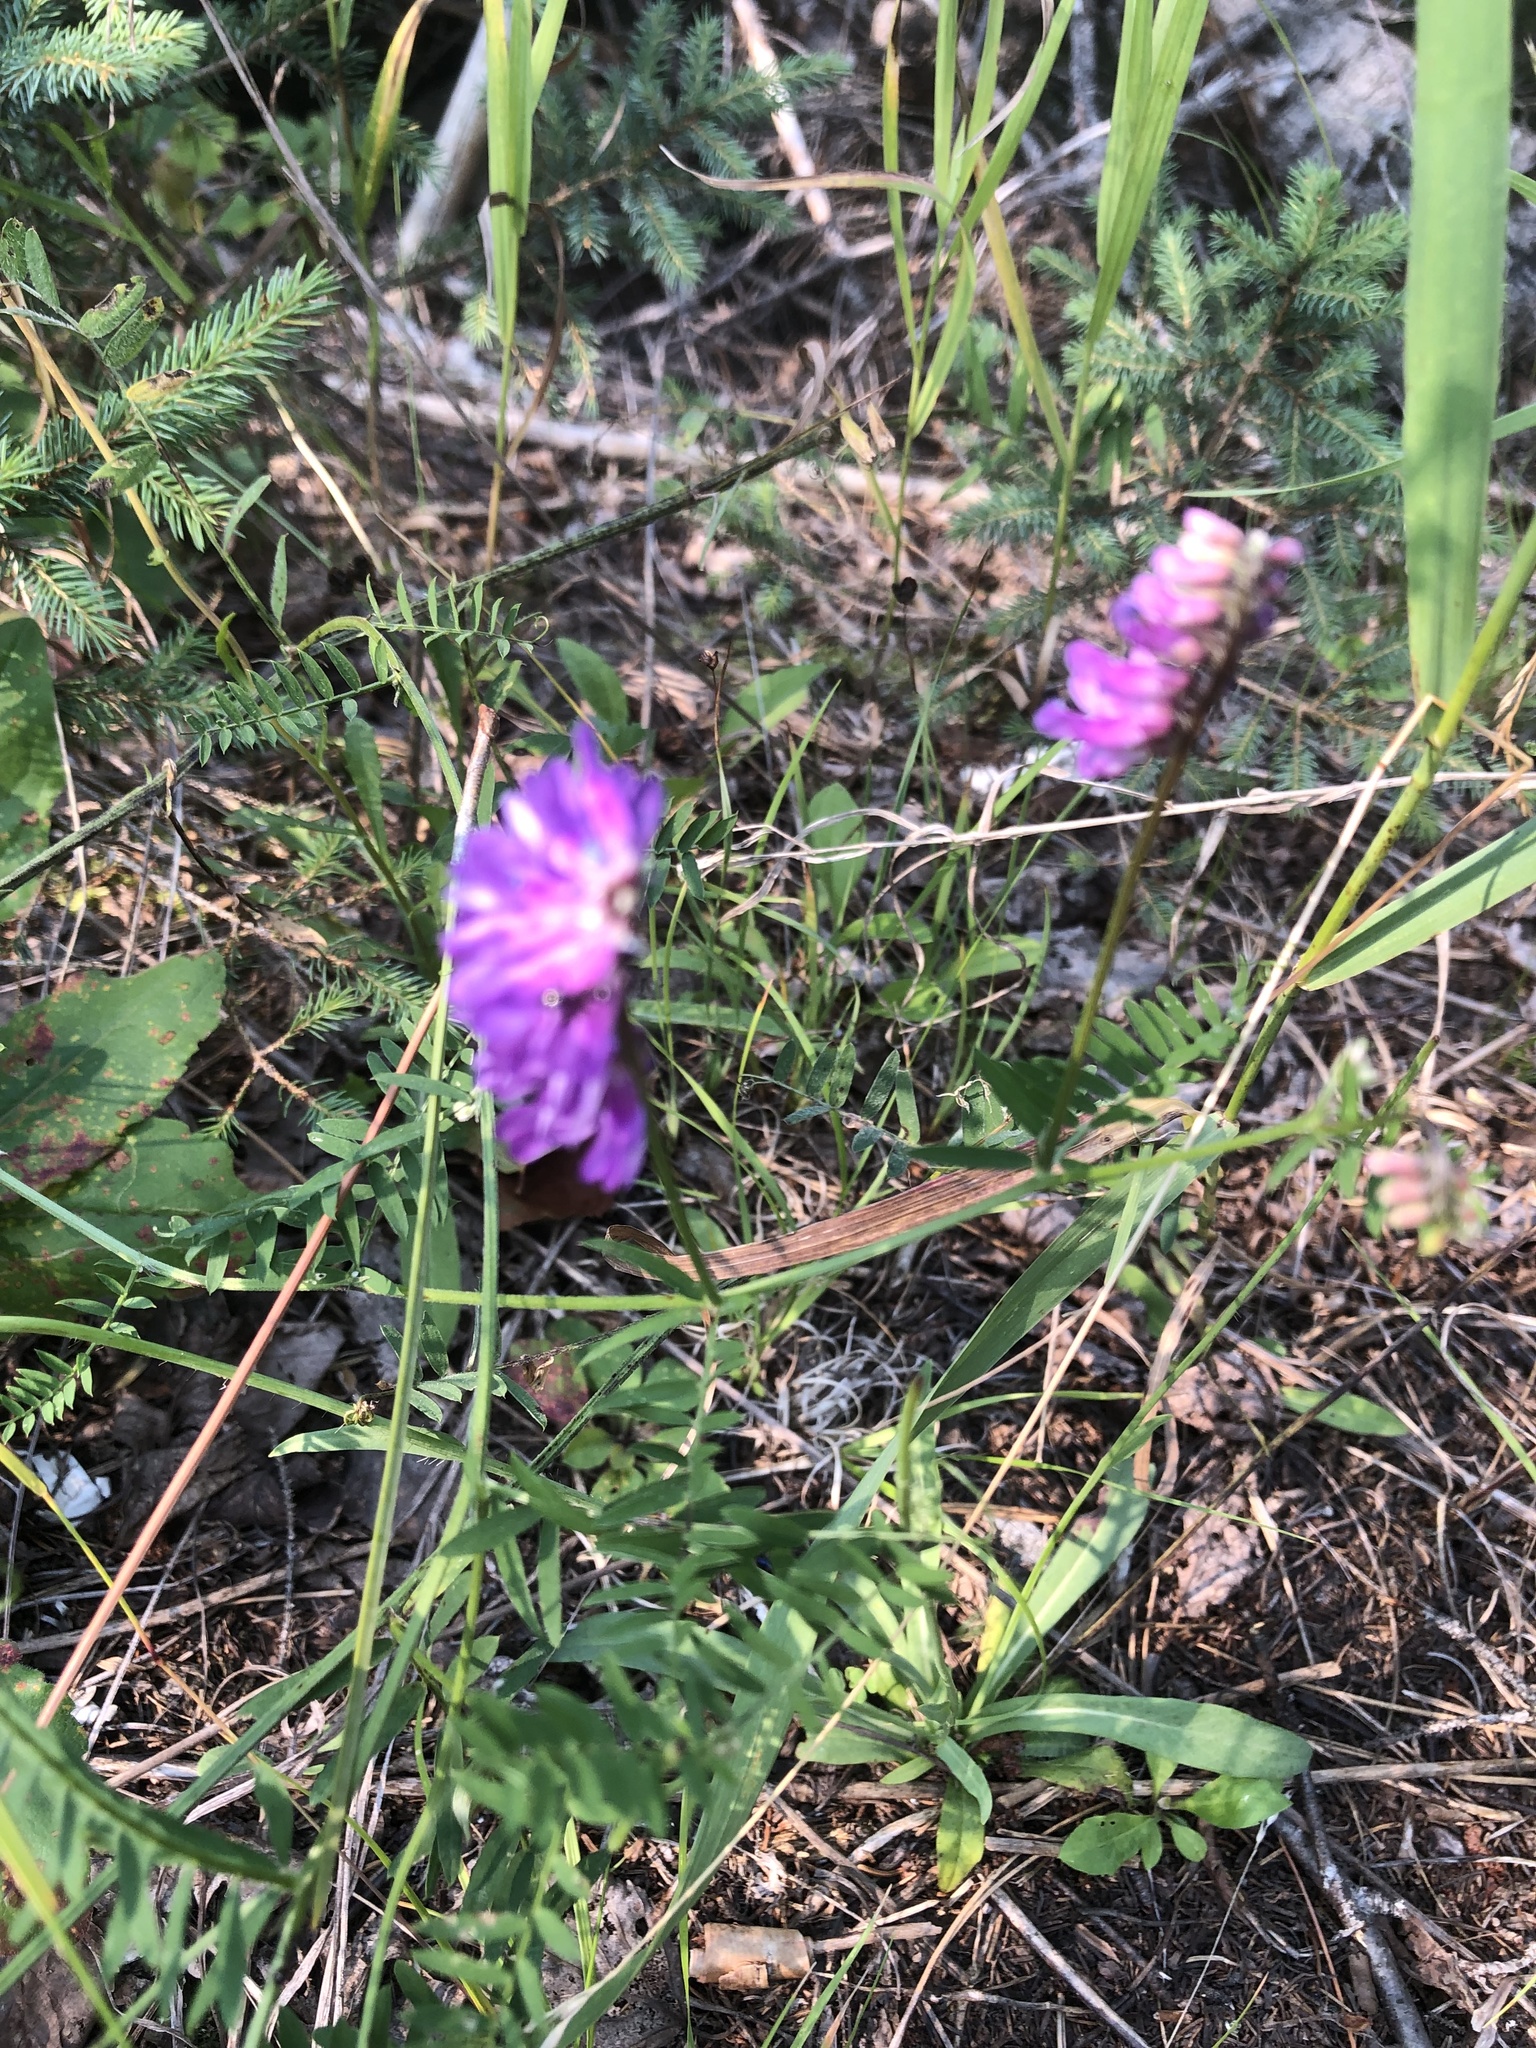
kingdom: Plantae
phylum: Tracheophyta
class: Magnoliopsida
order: Fabales
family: Fabaceae
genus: Vicia
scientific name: Vicia cracca
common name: Bird vetch
